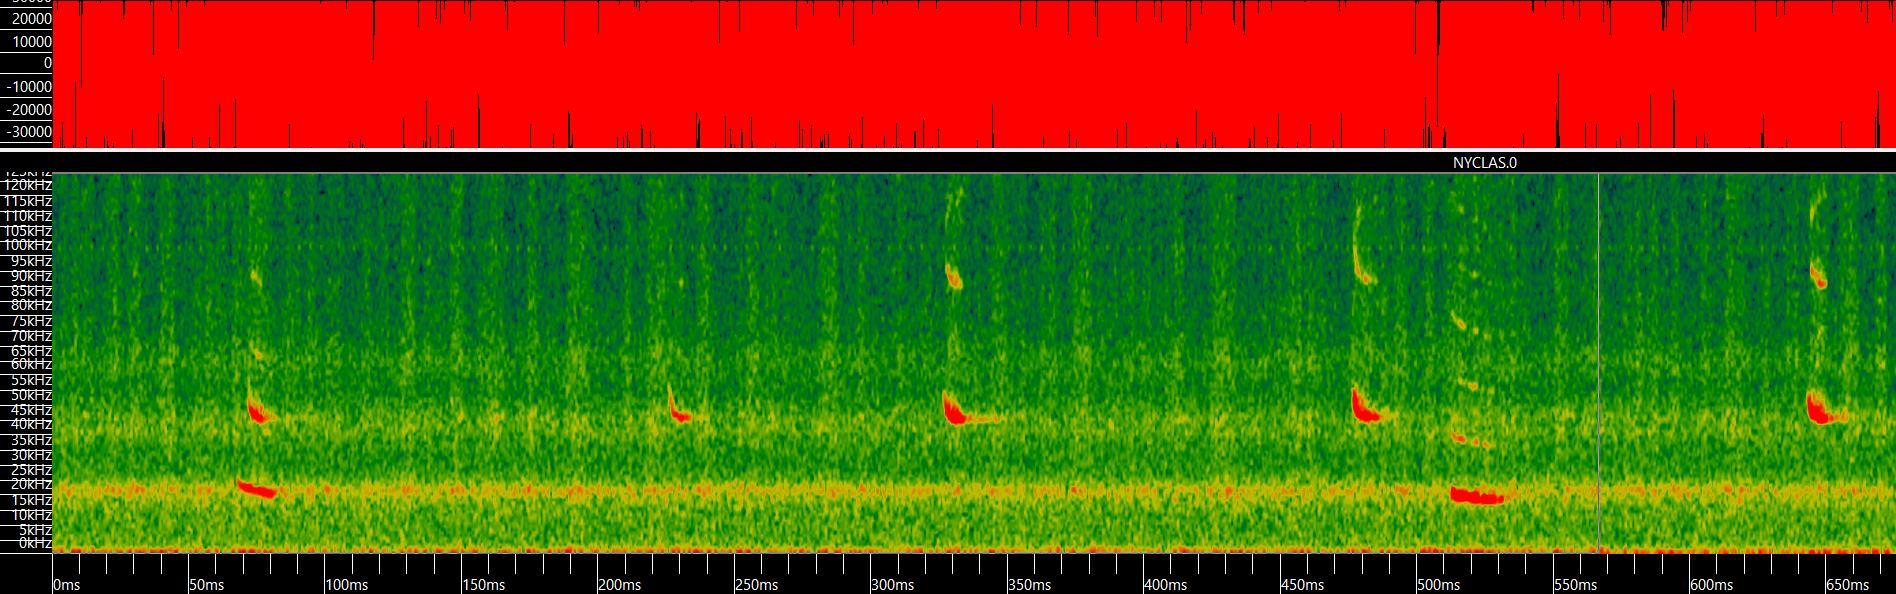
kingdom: Animalia
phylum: Chordata
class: Mammalia
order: Chiroptera
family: Vespertilionidae
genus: Nyctalus
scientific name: Nyctalus lasiopterus
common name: Giant noctule
